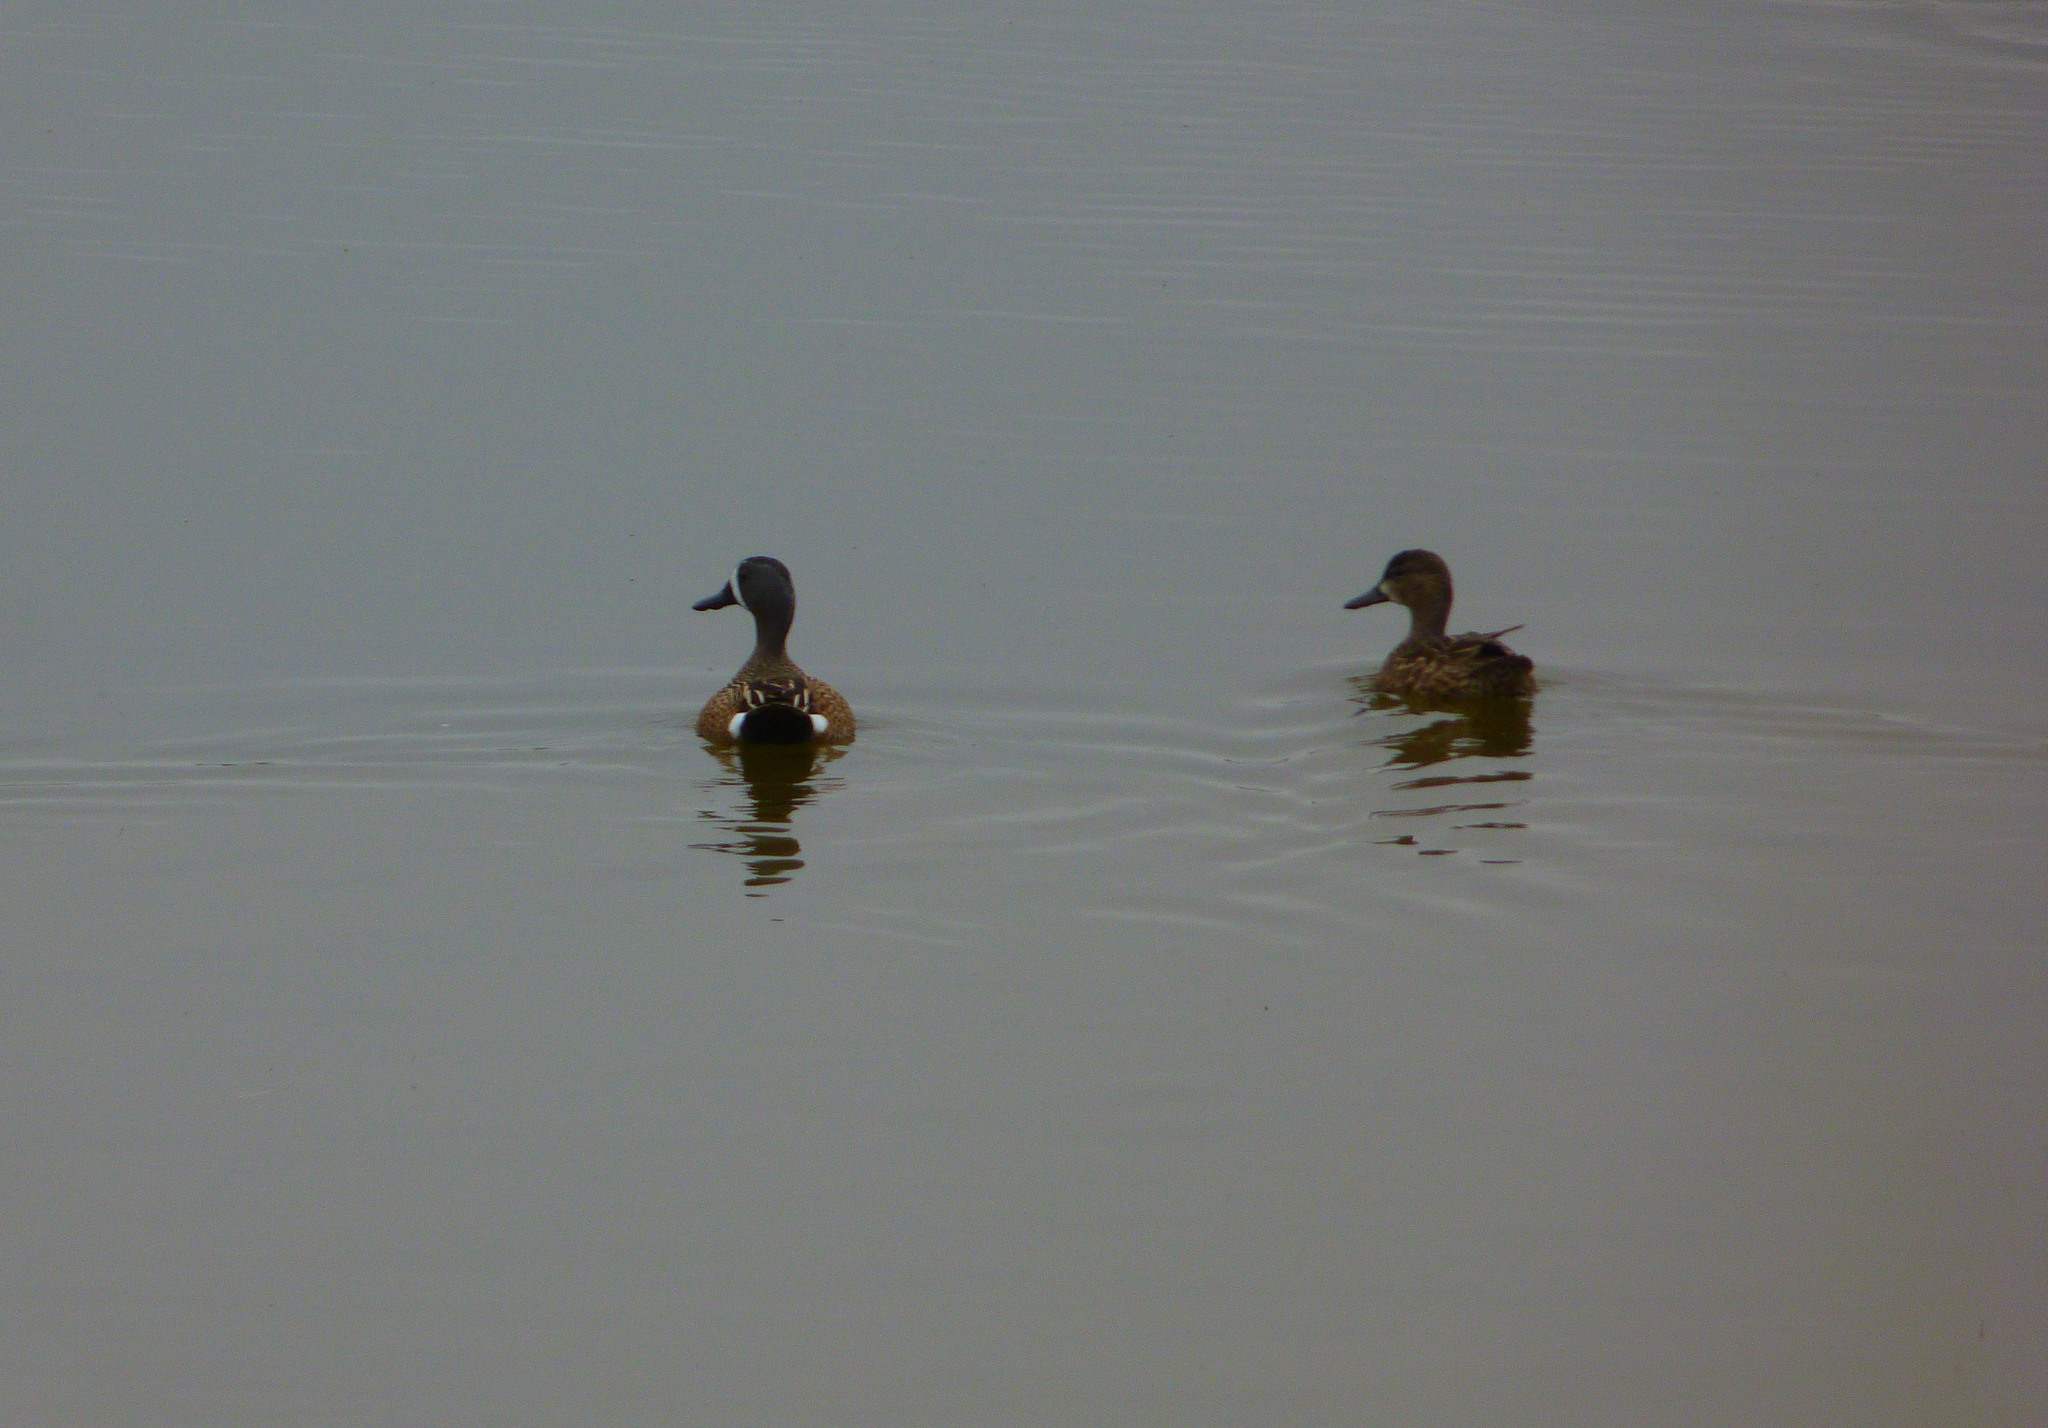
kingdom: Animalia
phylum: Chordata
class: Aves
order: Anseriformes
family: Anatidae
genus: Spatula
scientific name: Spatula discors
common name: Blue-winged teal
